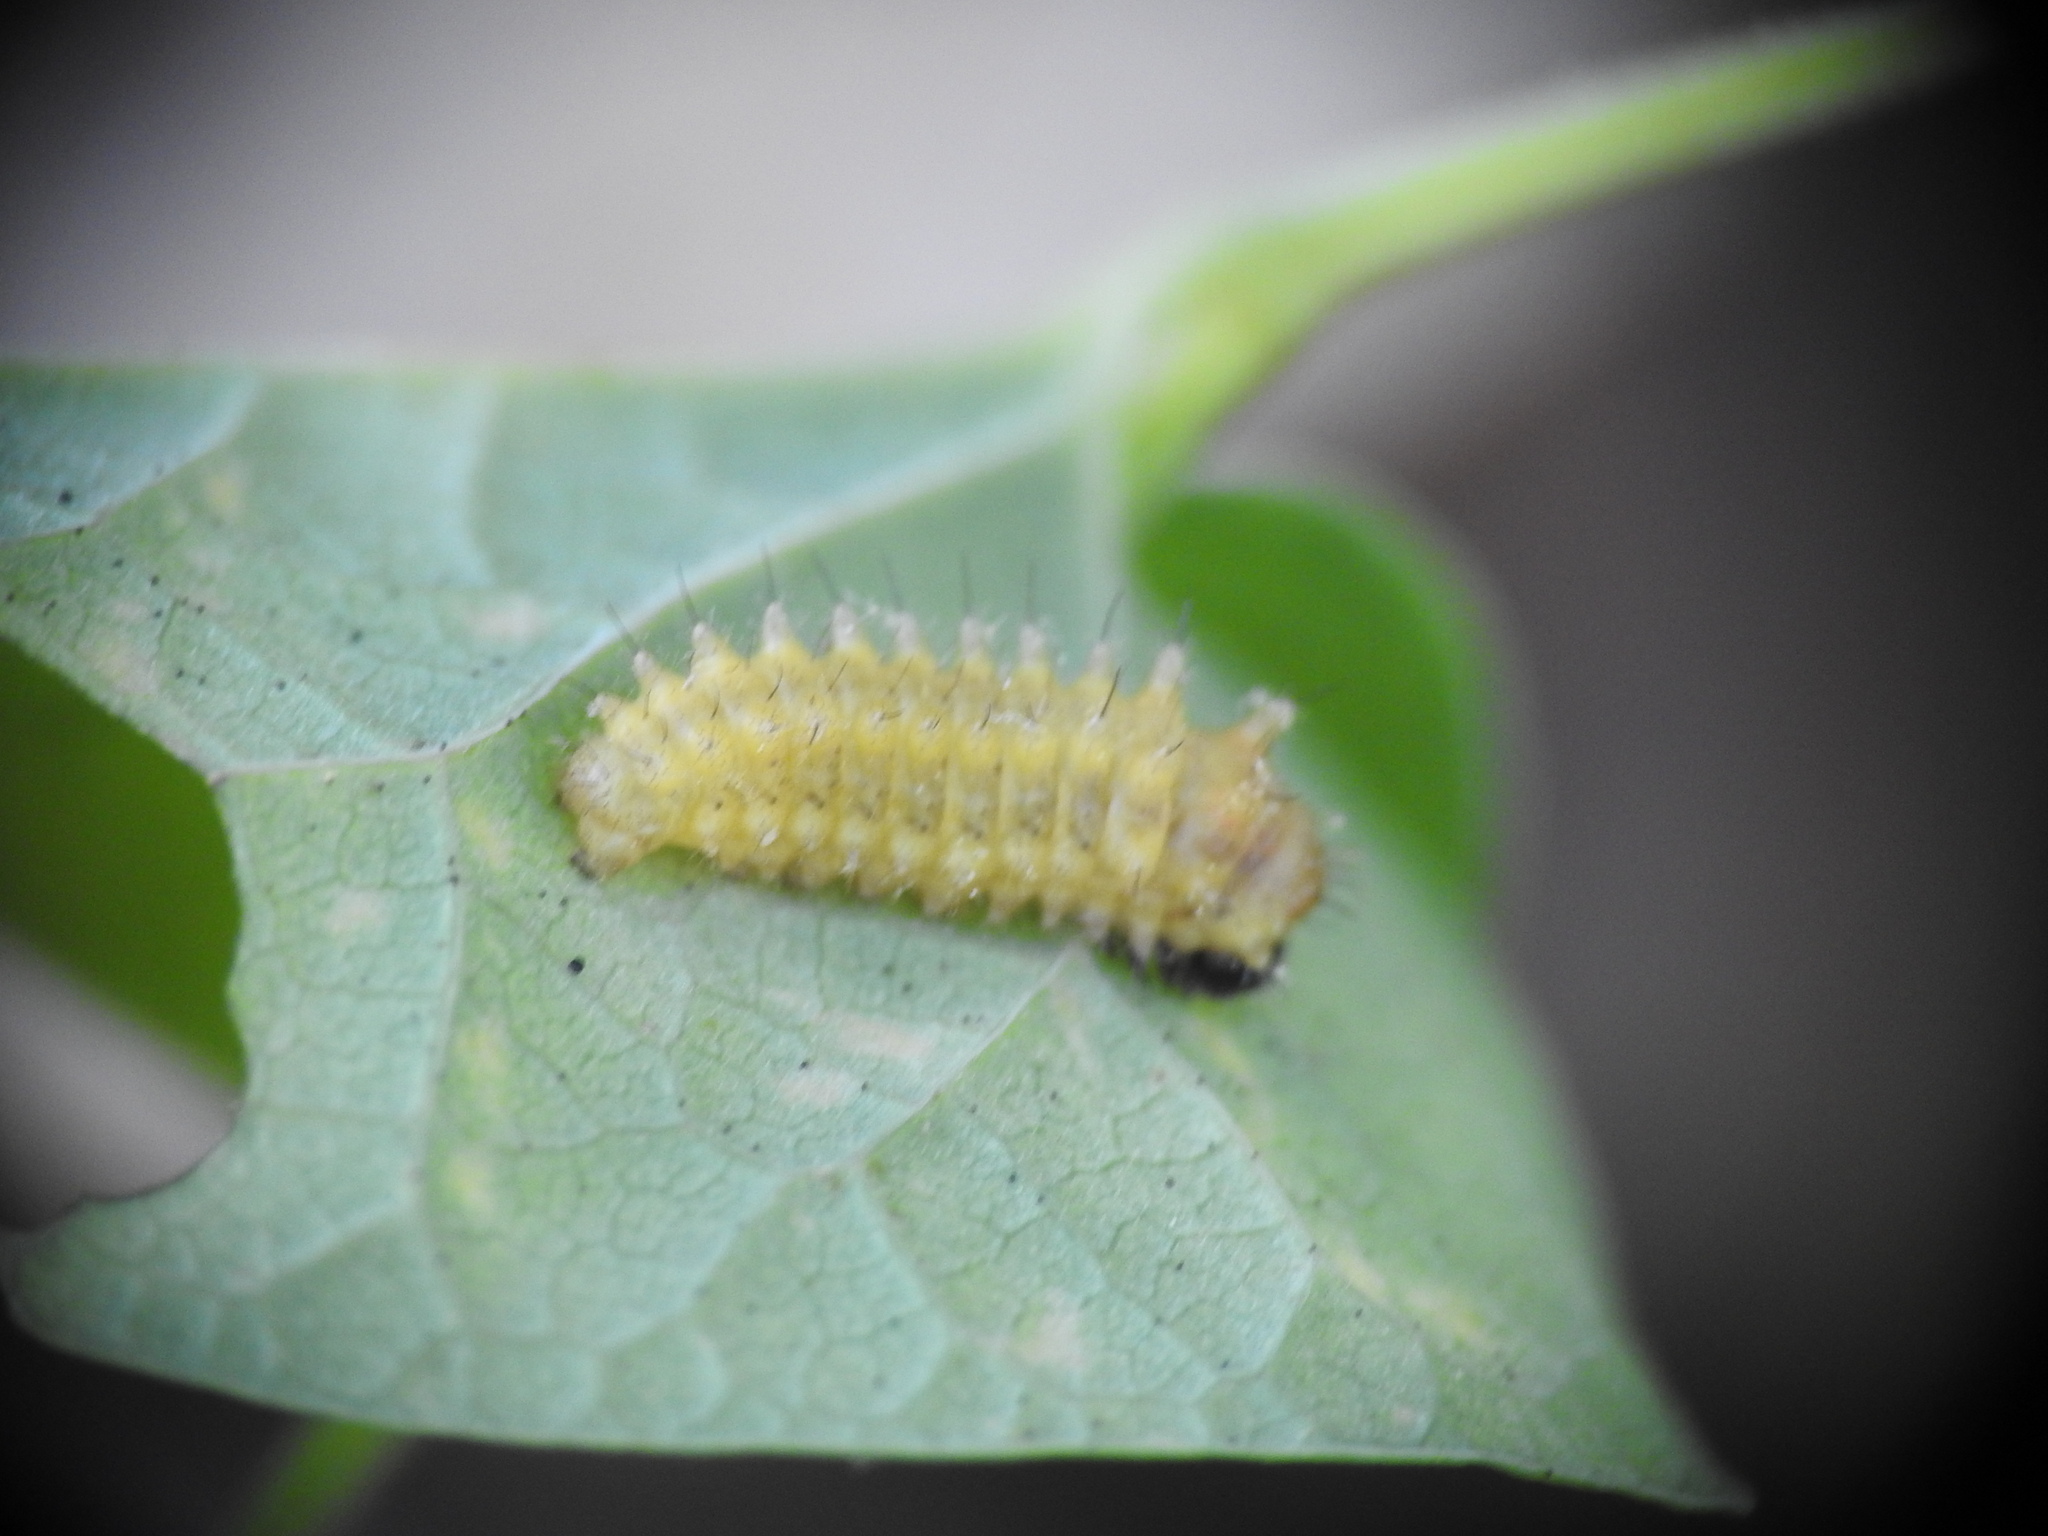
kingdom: Animalia
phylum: Arthropoda
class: Insecta
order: Lepidoptera
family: Papilionidae
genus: Zerynthia
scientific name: Zerynthia rumina
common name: Spanish festoon
